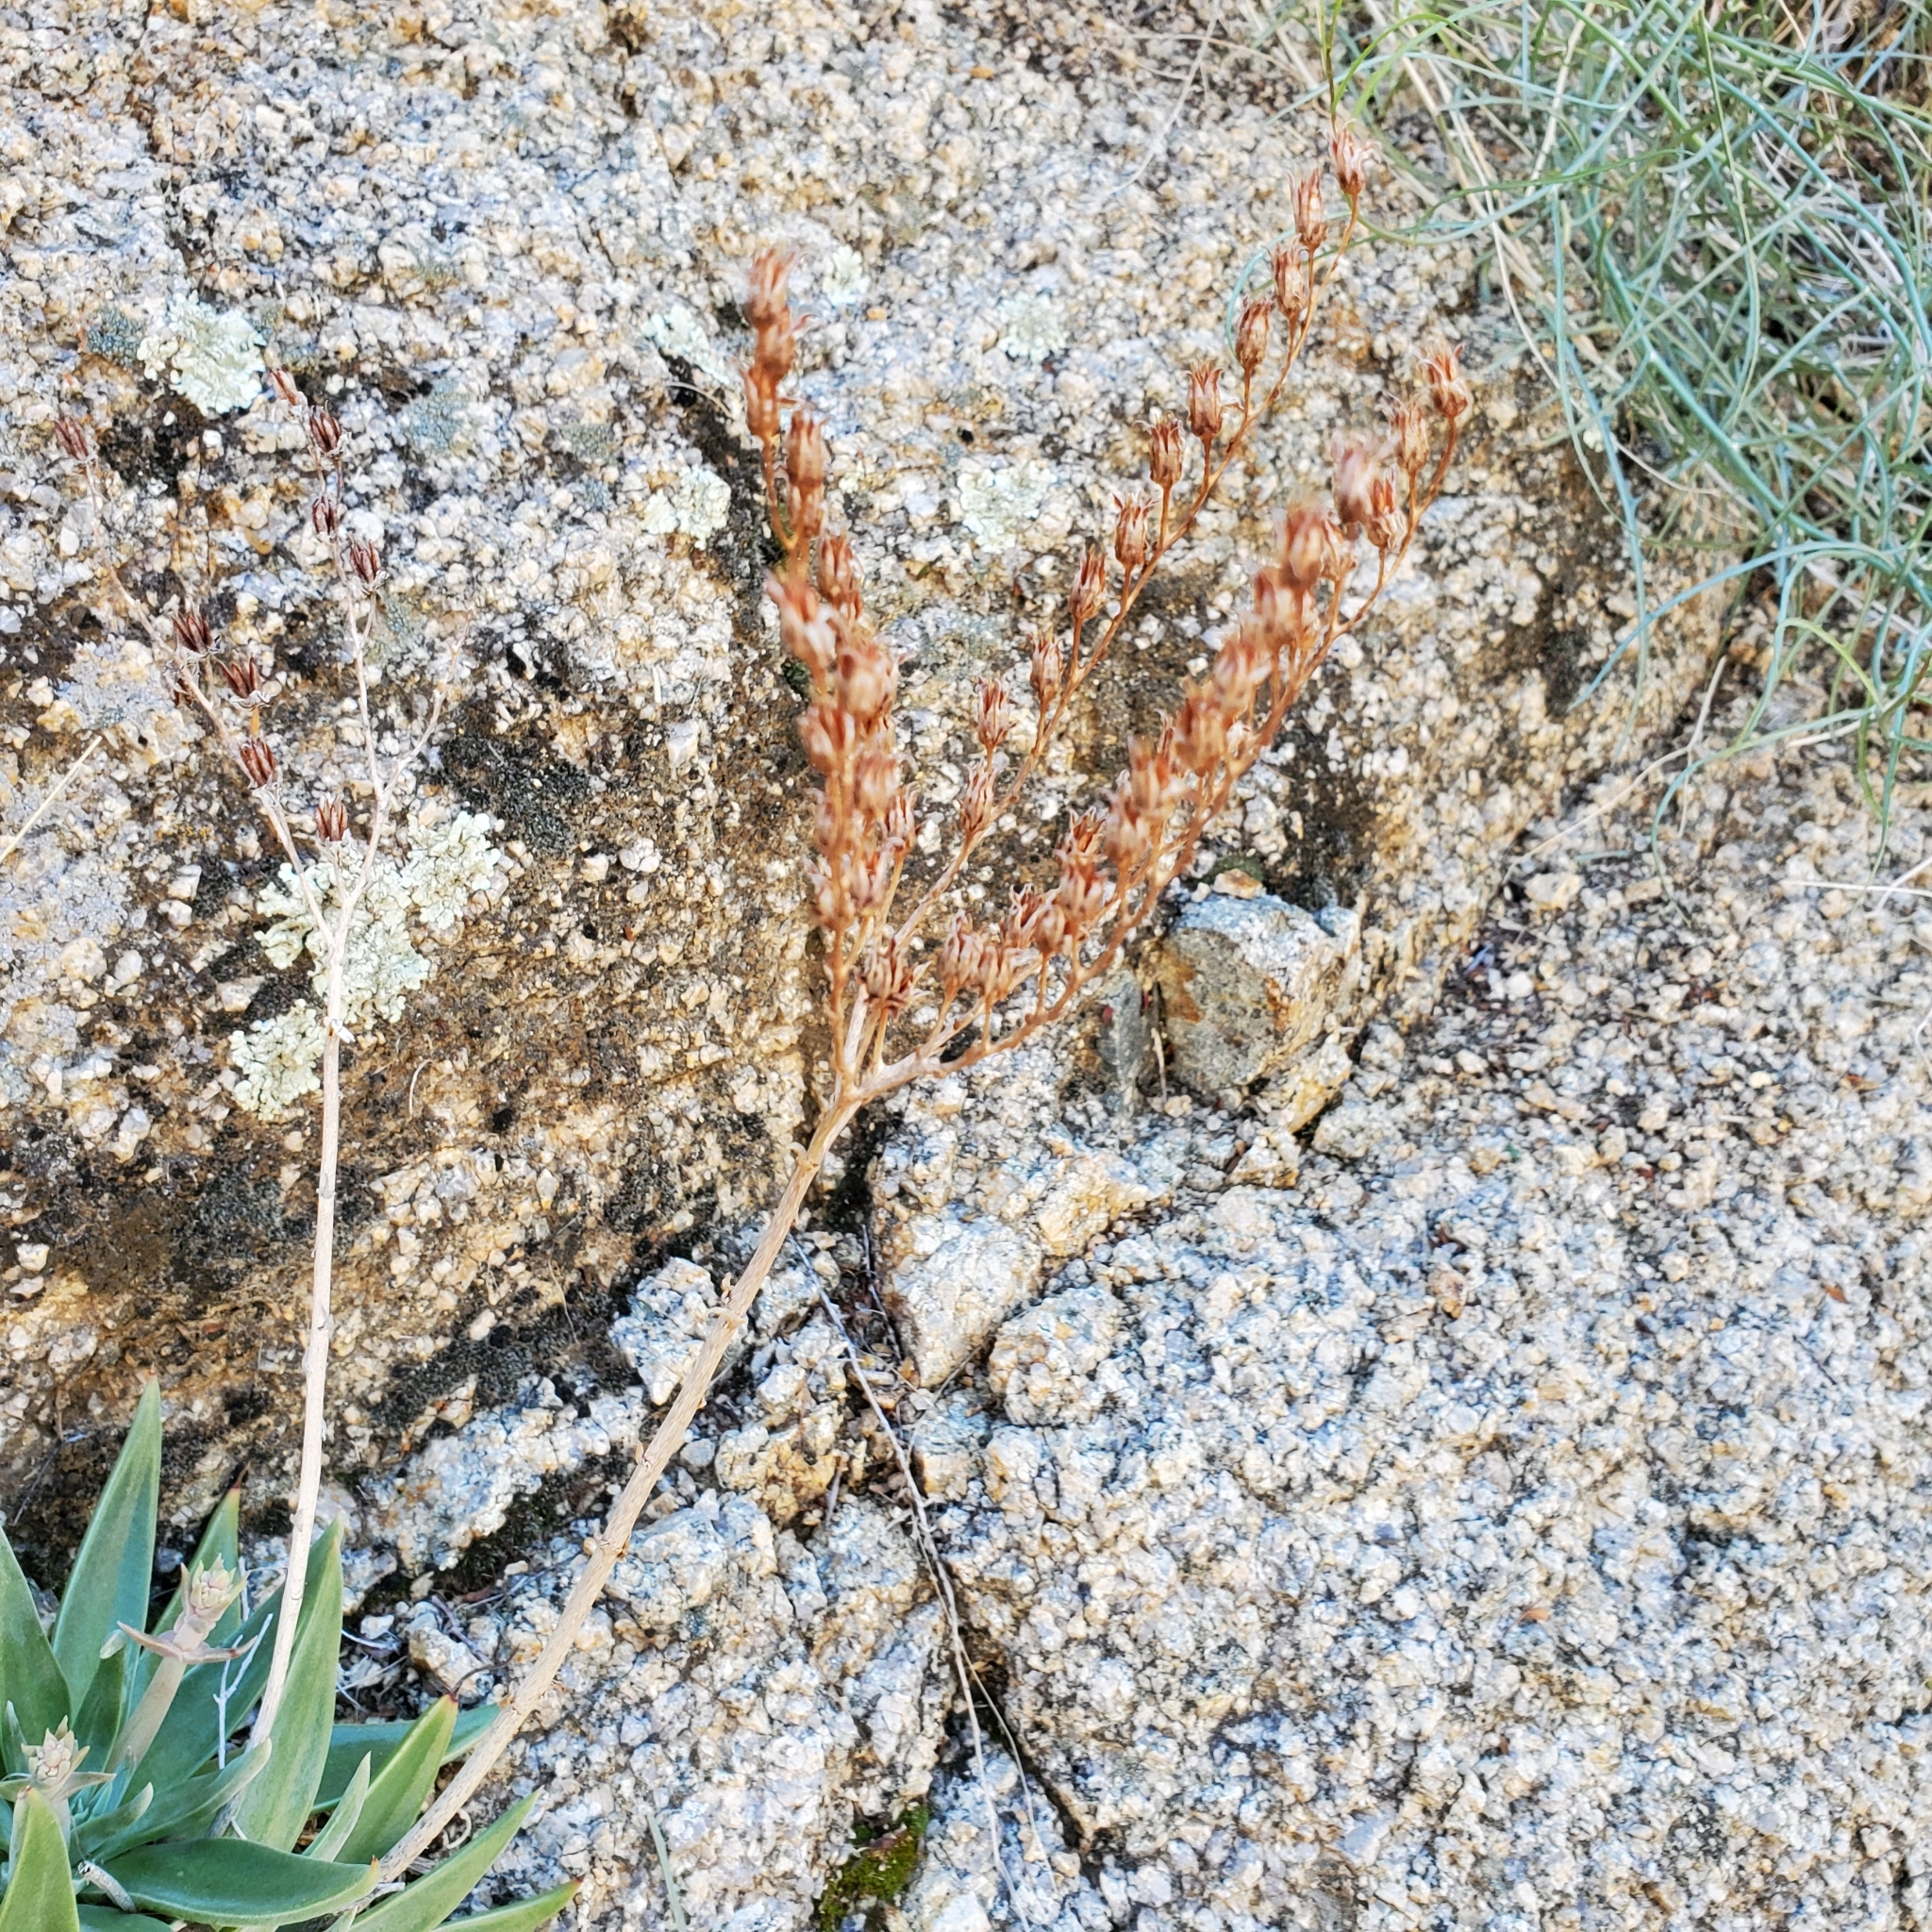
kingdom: Plantae
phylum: Tracheophyta
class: Magnoliopsida
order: Saxifragales
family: Crassulaceae
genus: Dudleya
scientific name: Dudleya saxosa
